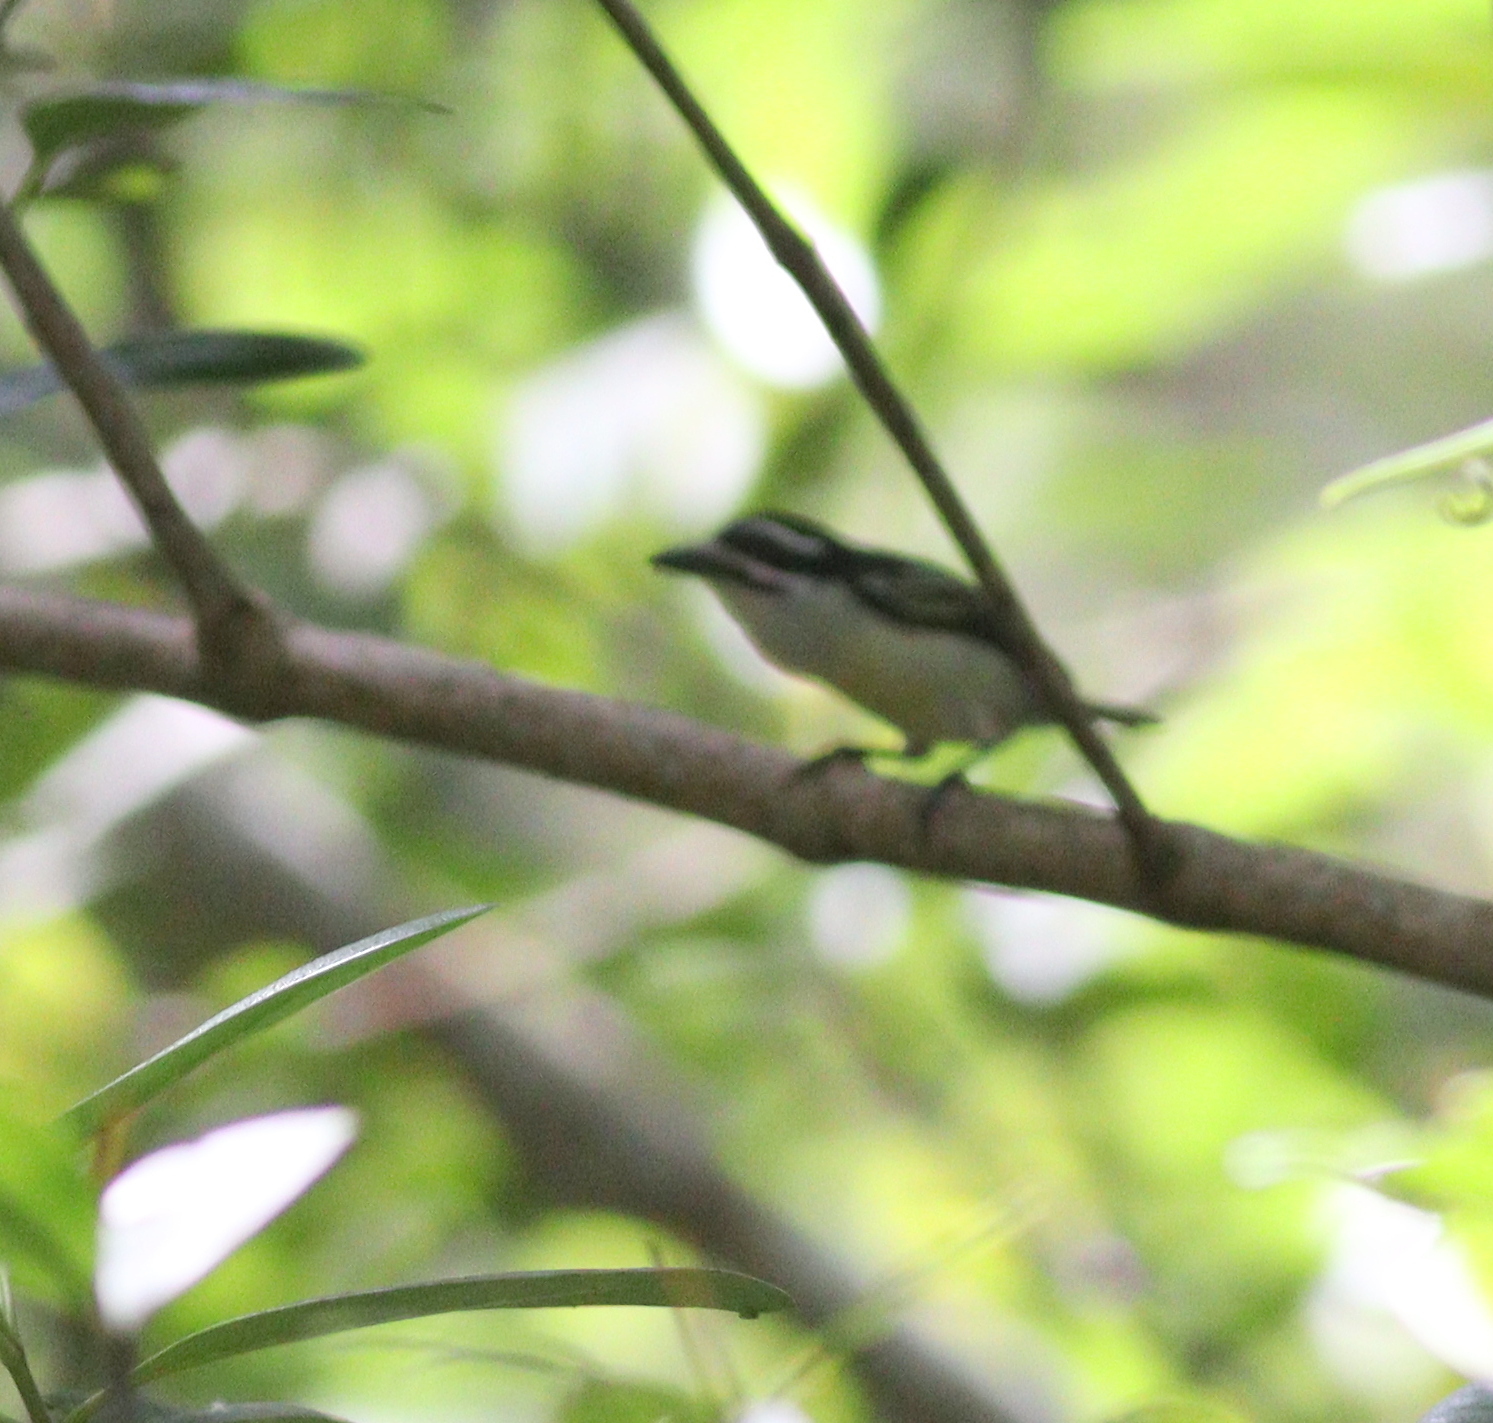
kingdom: Animalia
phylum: Chordata
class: Aves
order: Piciformes
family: Lybiidae
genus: Pogoniulus
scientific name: Pogoniulus bilineatus
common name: Yellow-rumped tinkerbird
